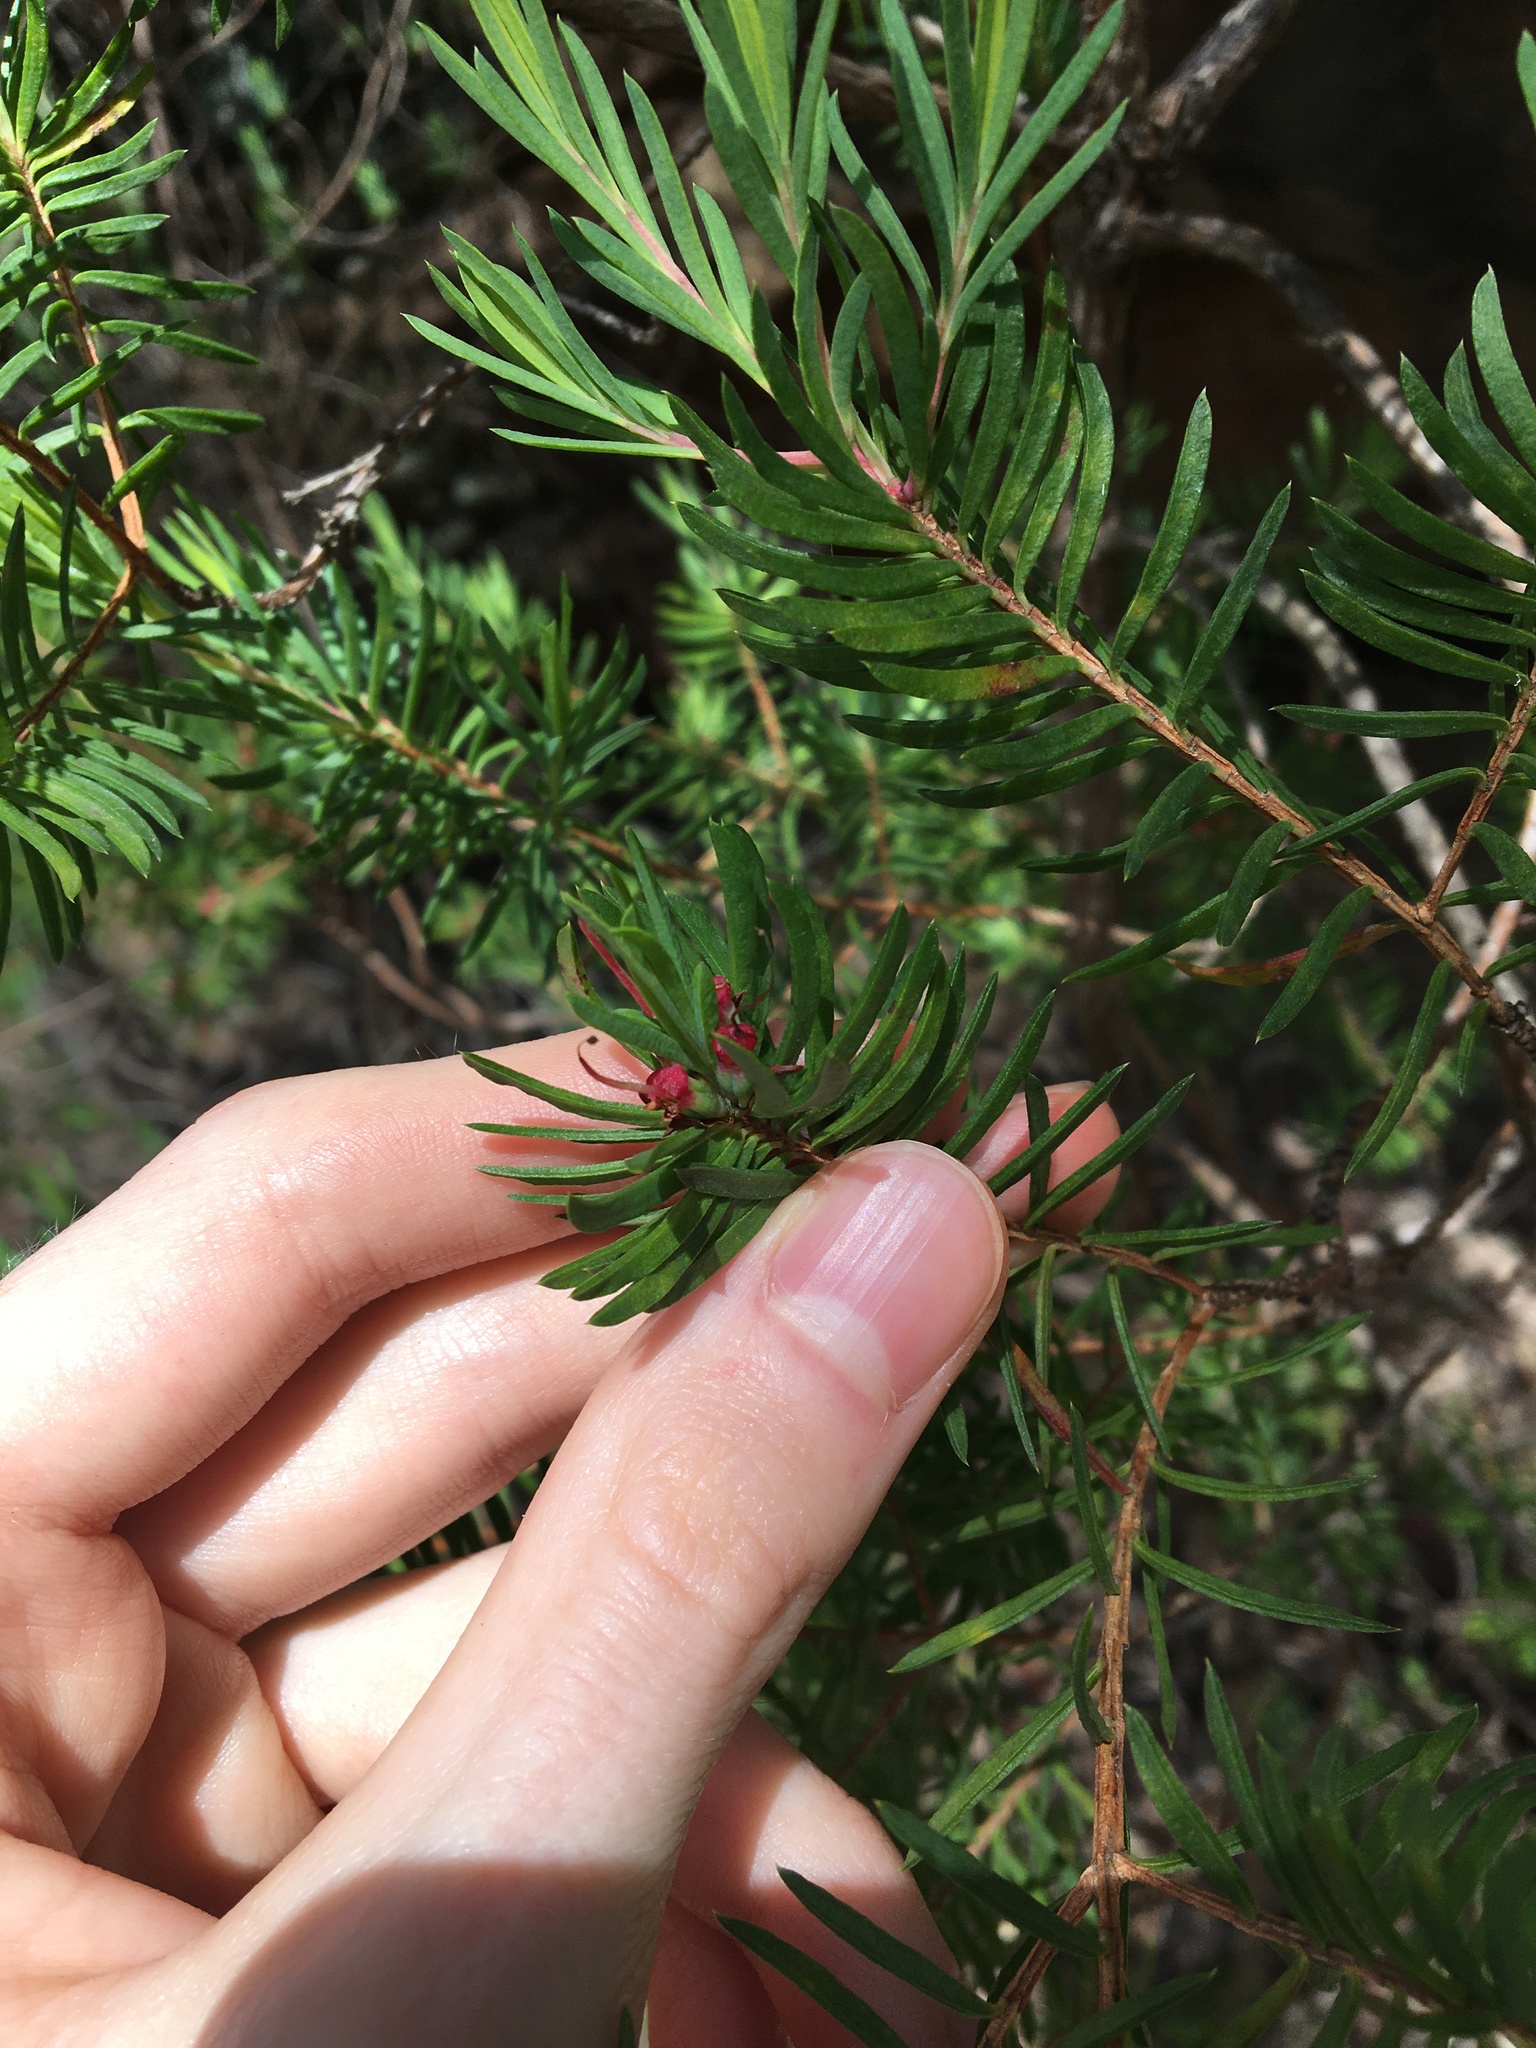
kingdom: Plantae
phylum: Tracheophyta
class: Magnoliopsida
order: Myrtales
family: Myrtaceae
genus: Darwinia
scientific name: Darwinia procera
